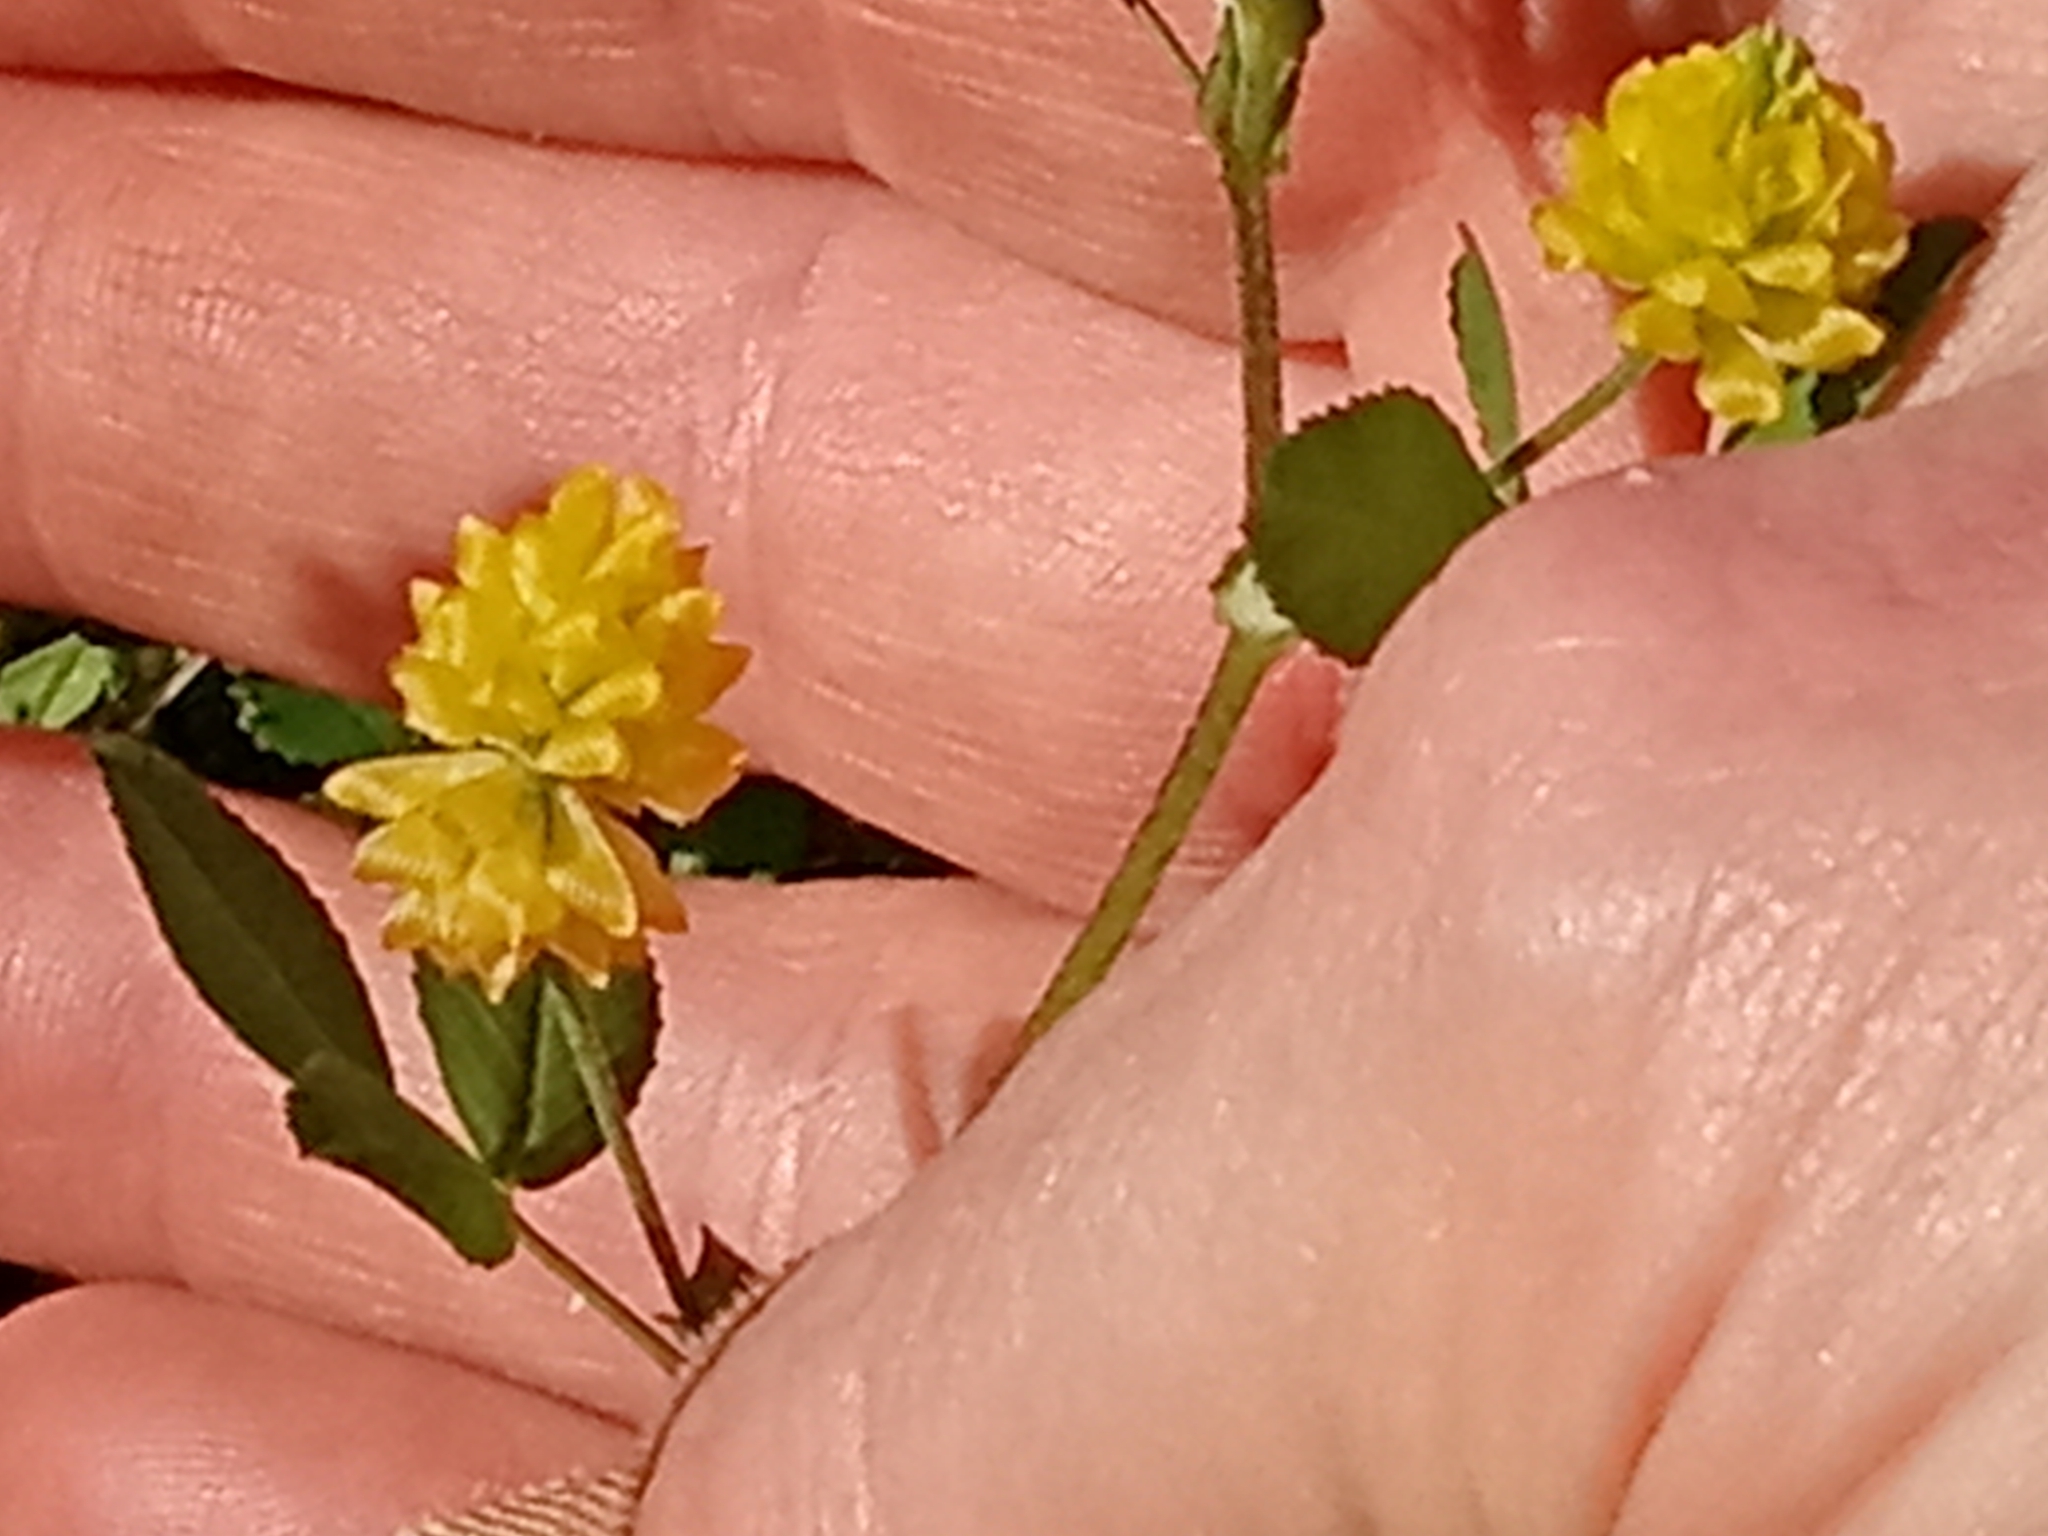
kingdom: Plantae
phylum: Tracheophyta
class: Magnoliopsida
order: Fabales
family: Fabaceae
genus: Trifolium
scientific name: Trifolium campestre
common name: Field clover
